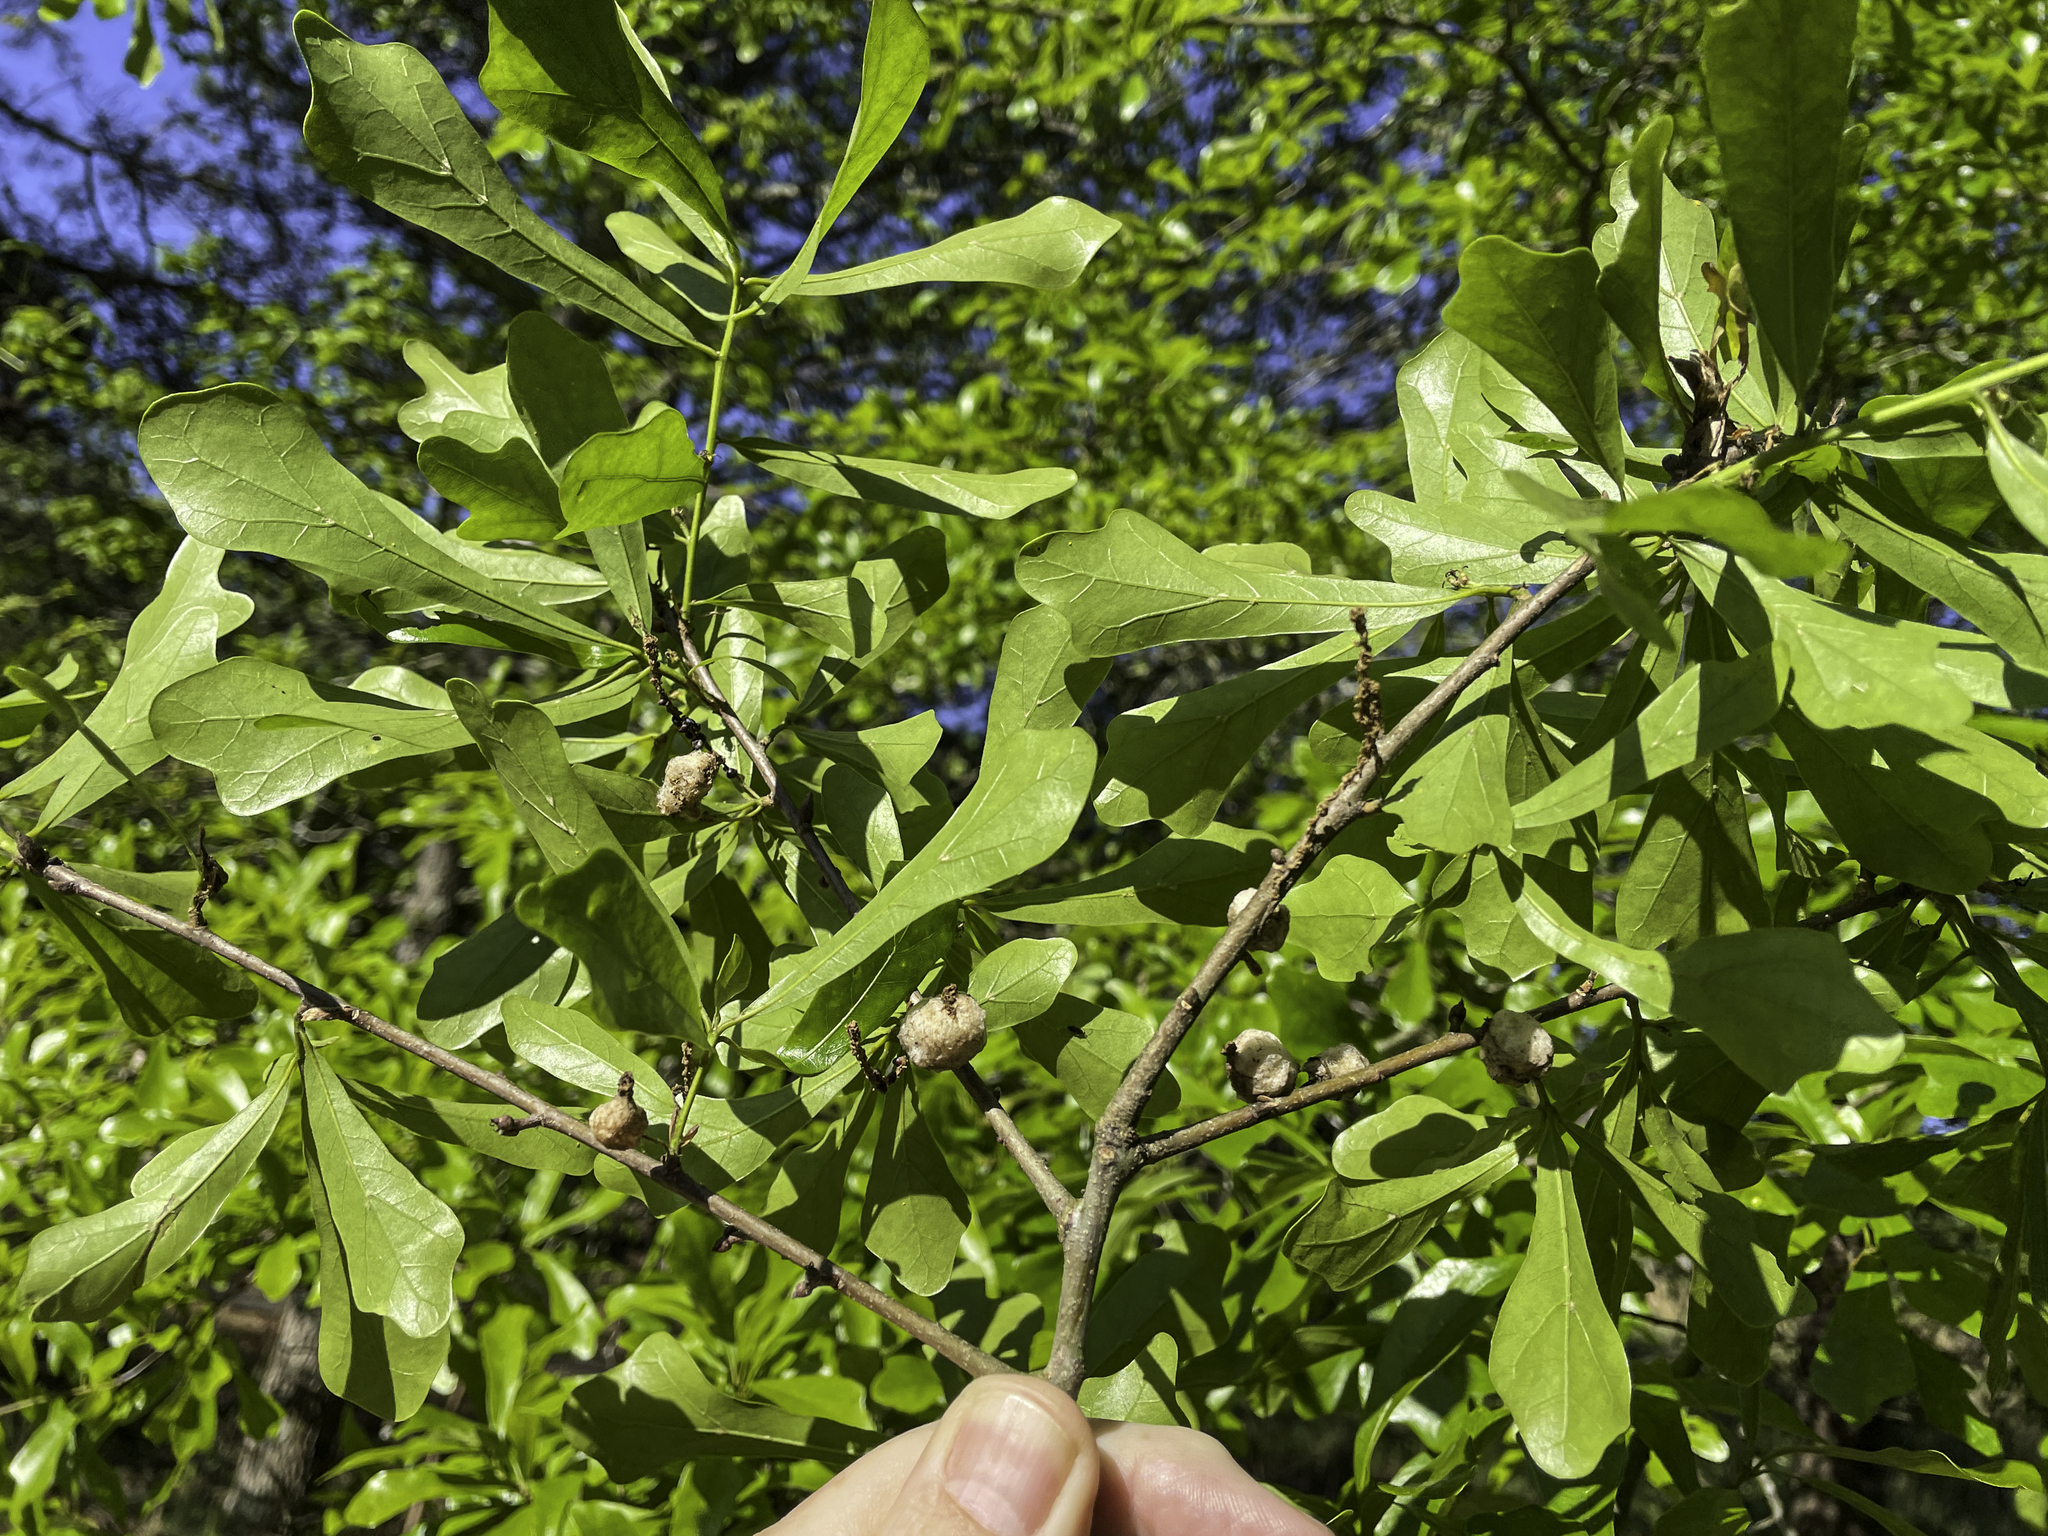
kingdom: Animalia
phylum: Arthropoda
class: Insecta
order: Hymenoptera
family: Cynipidae
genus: Callirhytis
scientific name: Callirhytis
